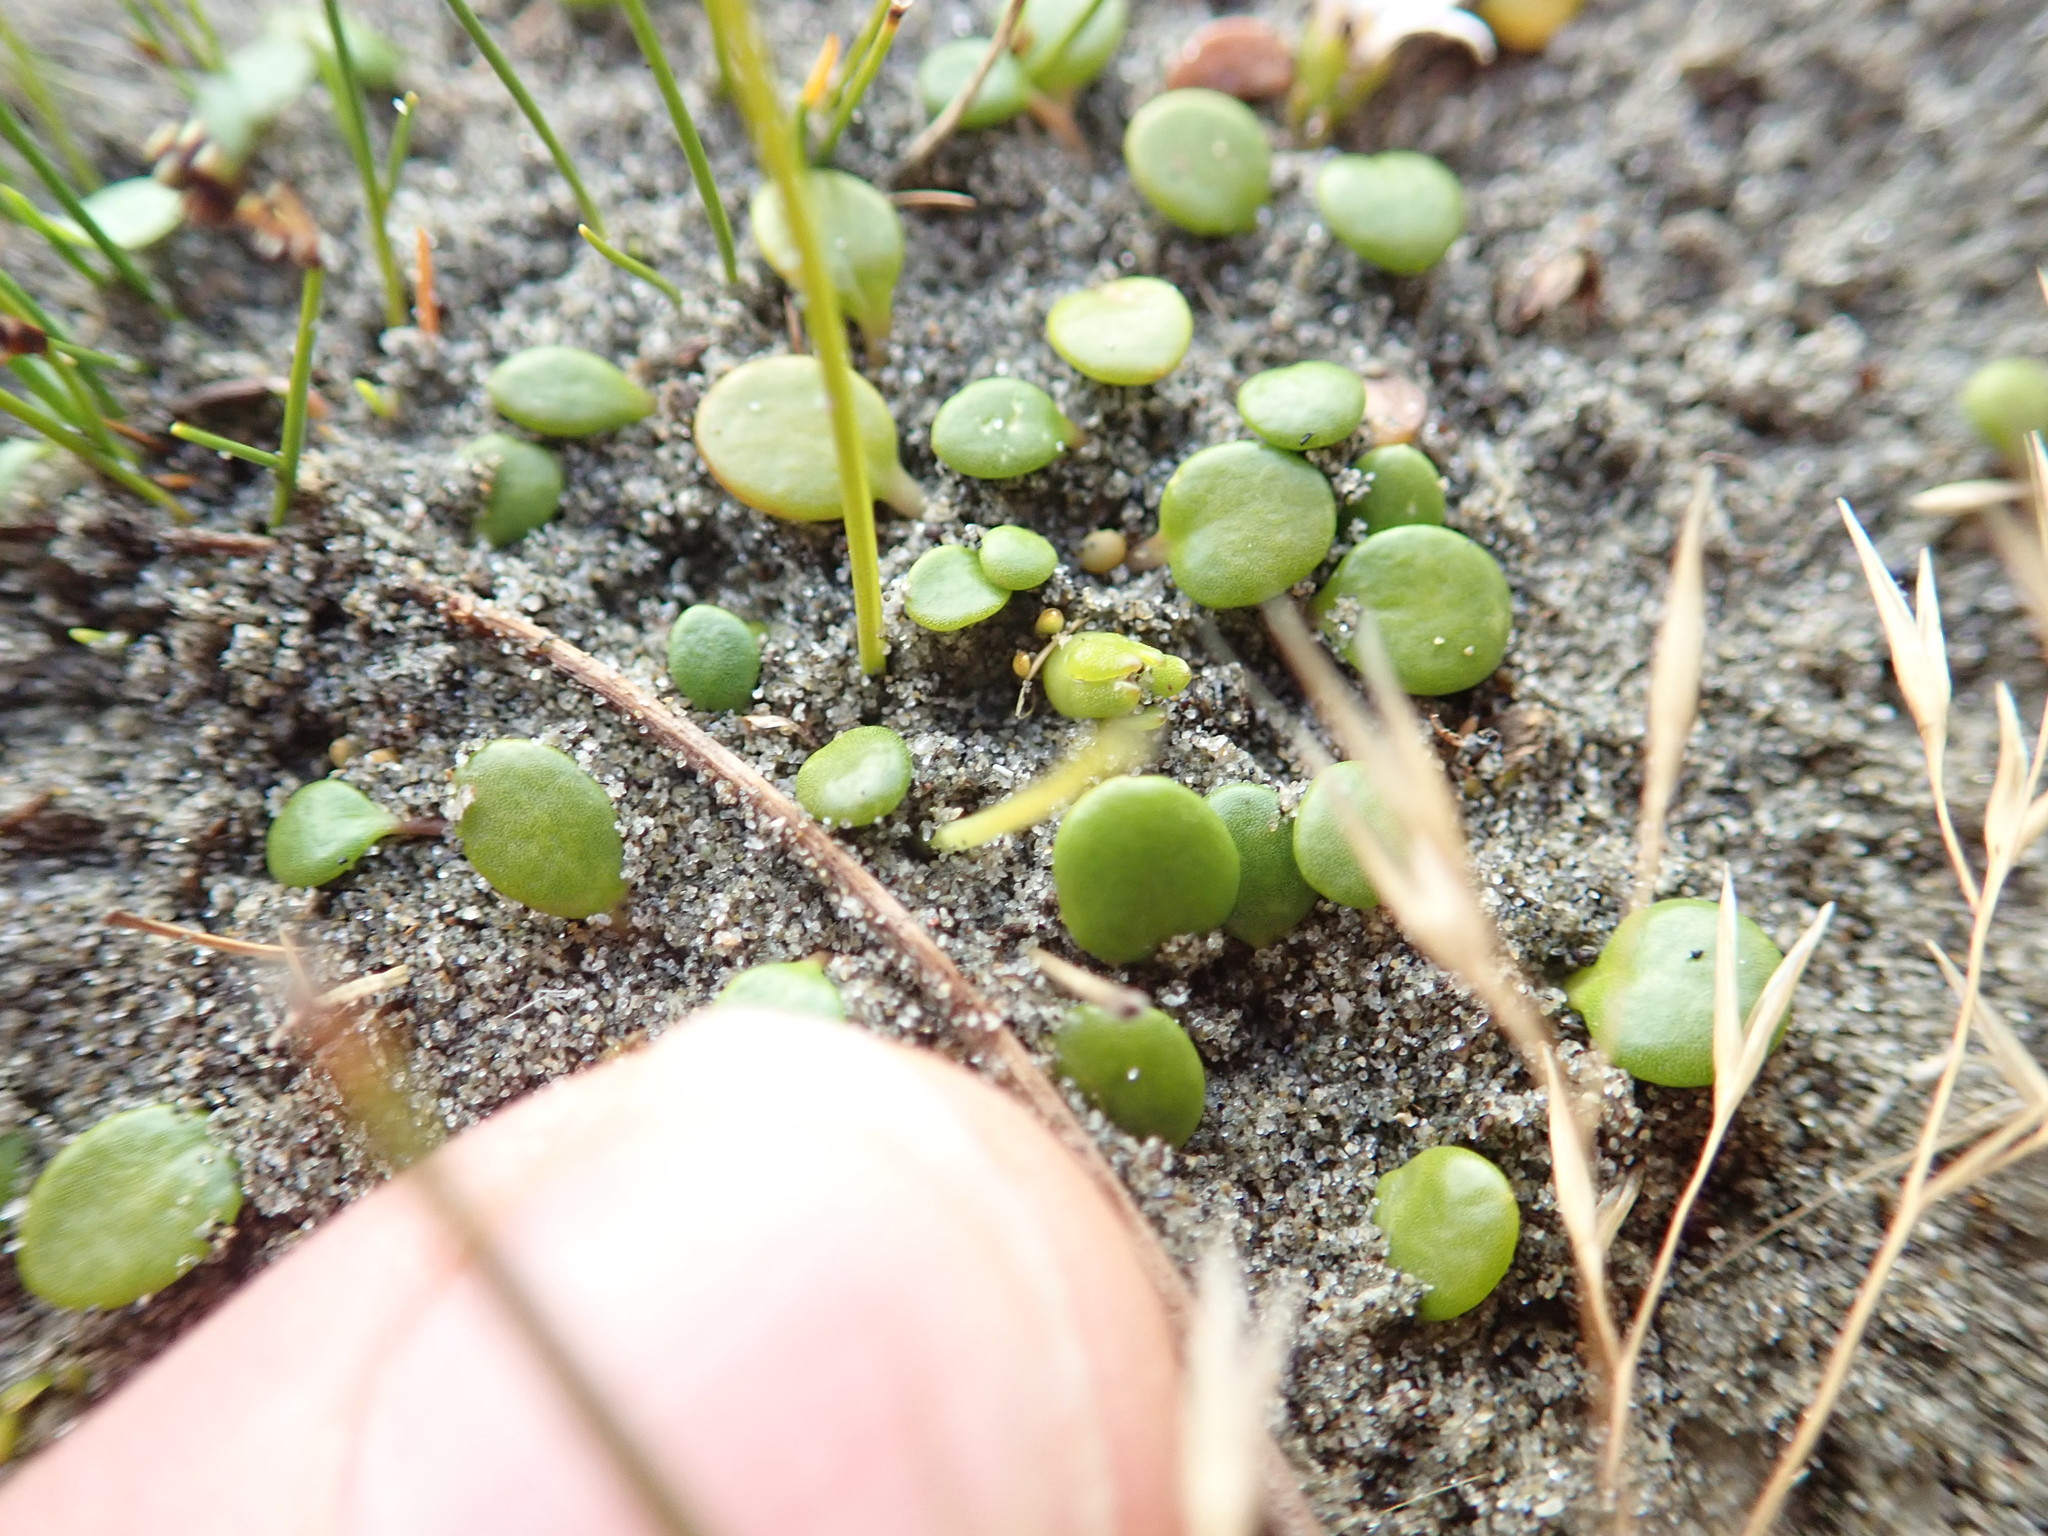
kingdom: Plantae
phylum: Tracheophyta
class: Magnoliopsida
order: Asterales
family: Goodeniaceae
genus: Goodenia
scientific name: Goodenia heenanii
